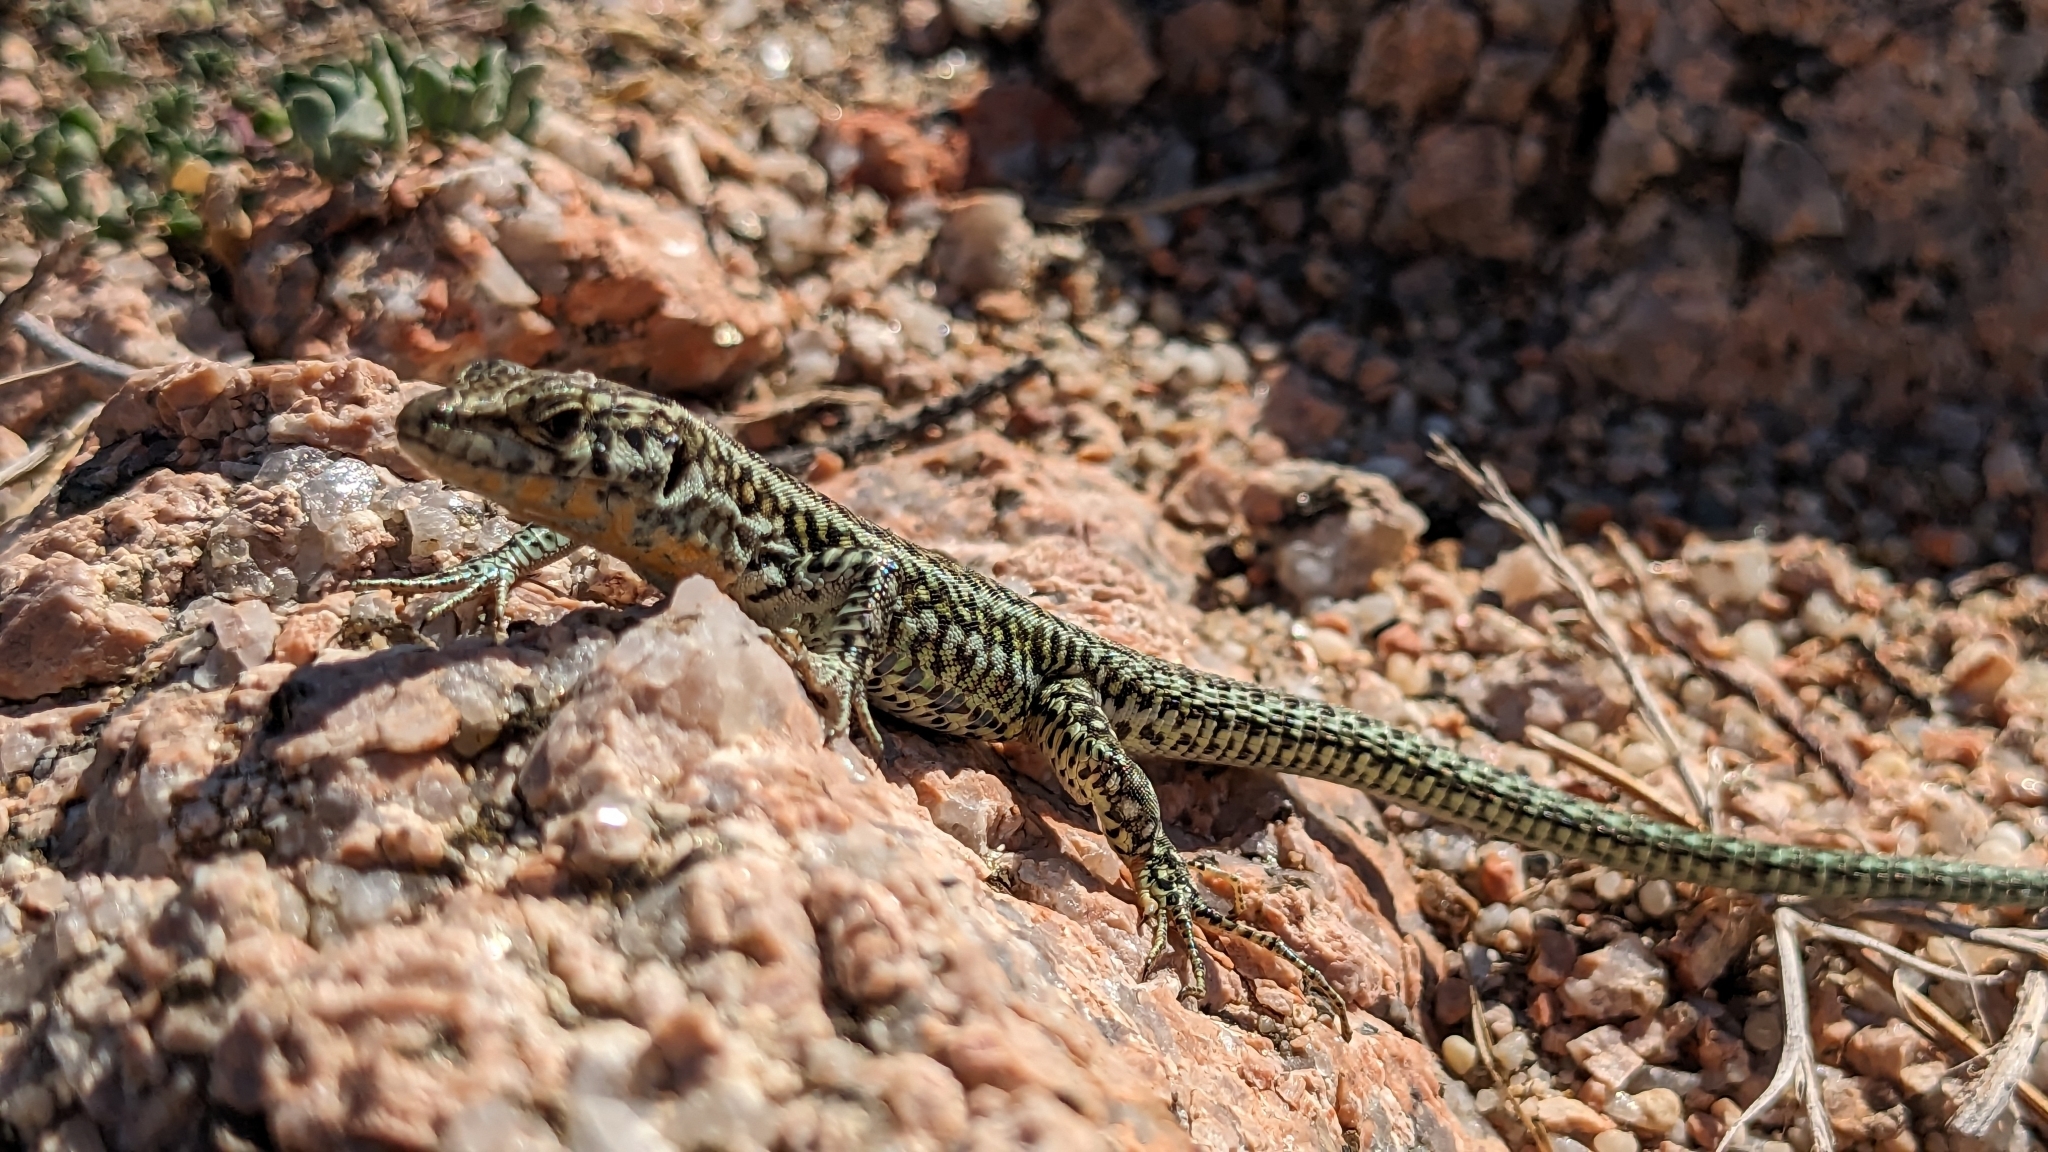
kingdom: Animalia
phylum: Chordata
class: Squamata
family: Lacertidae
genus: Podarcis
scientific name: Podarcis tiliguerta
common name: Tyrrhenian wall lizard
